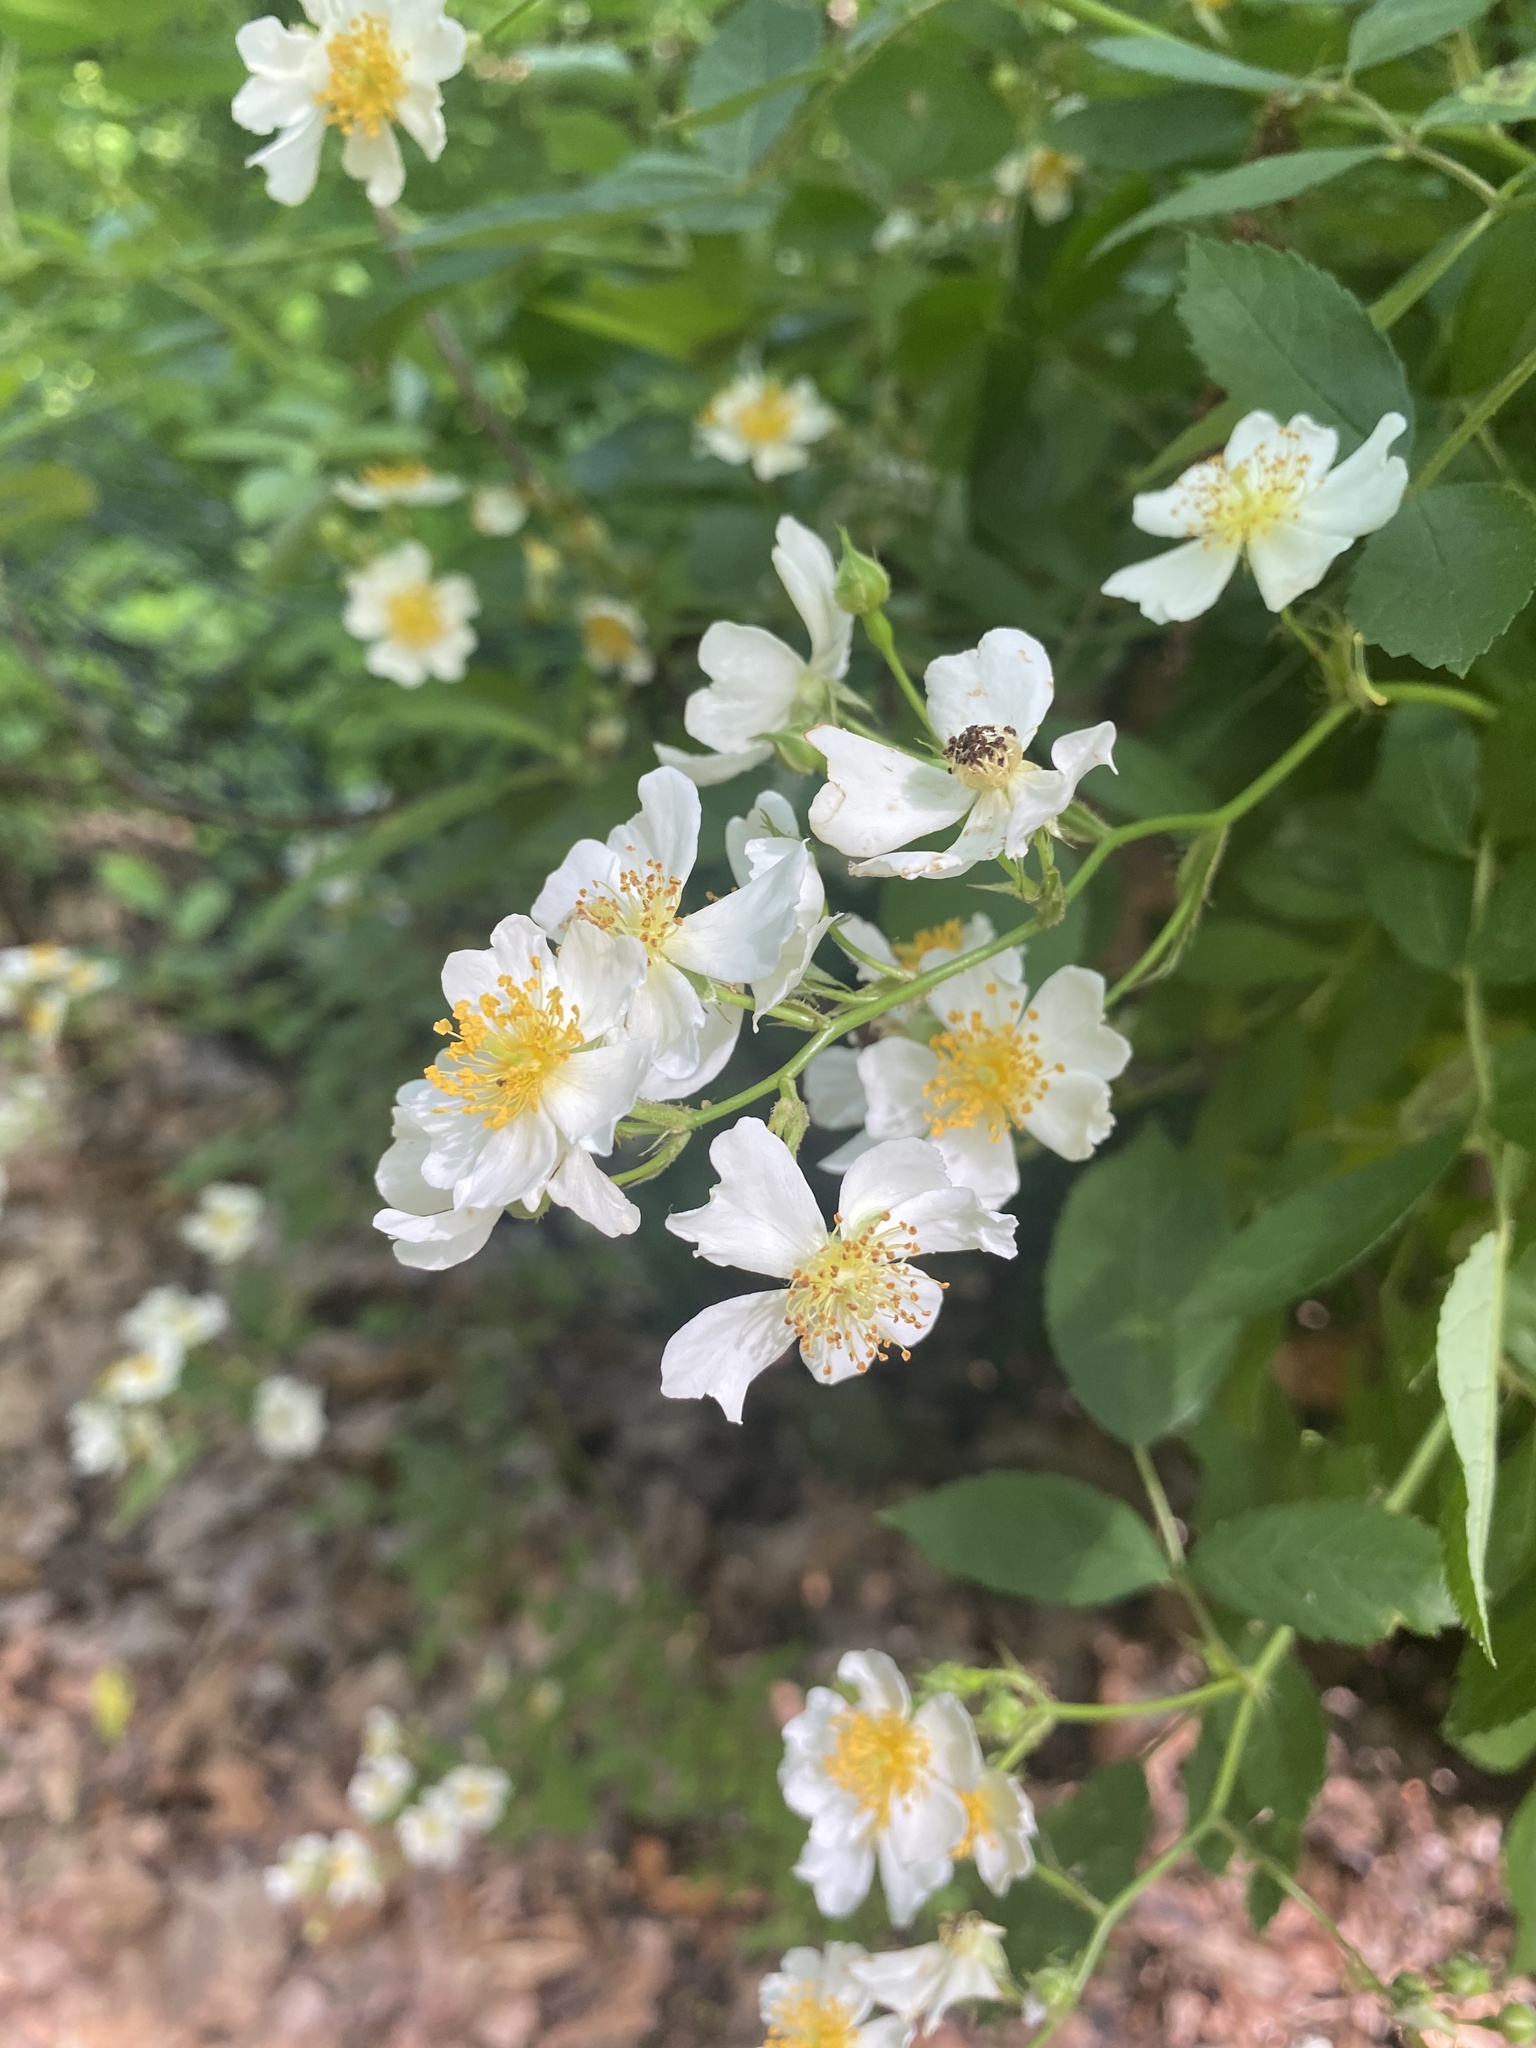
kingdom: Plantae
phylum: Tracheophyta
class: Magnoliopsida
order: Rosales
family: Rosaceae
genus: Rosa
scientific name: Rosa multiflora
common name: Multiflora rose
